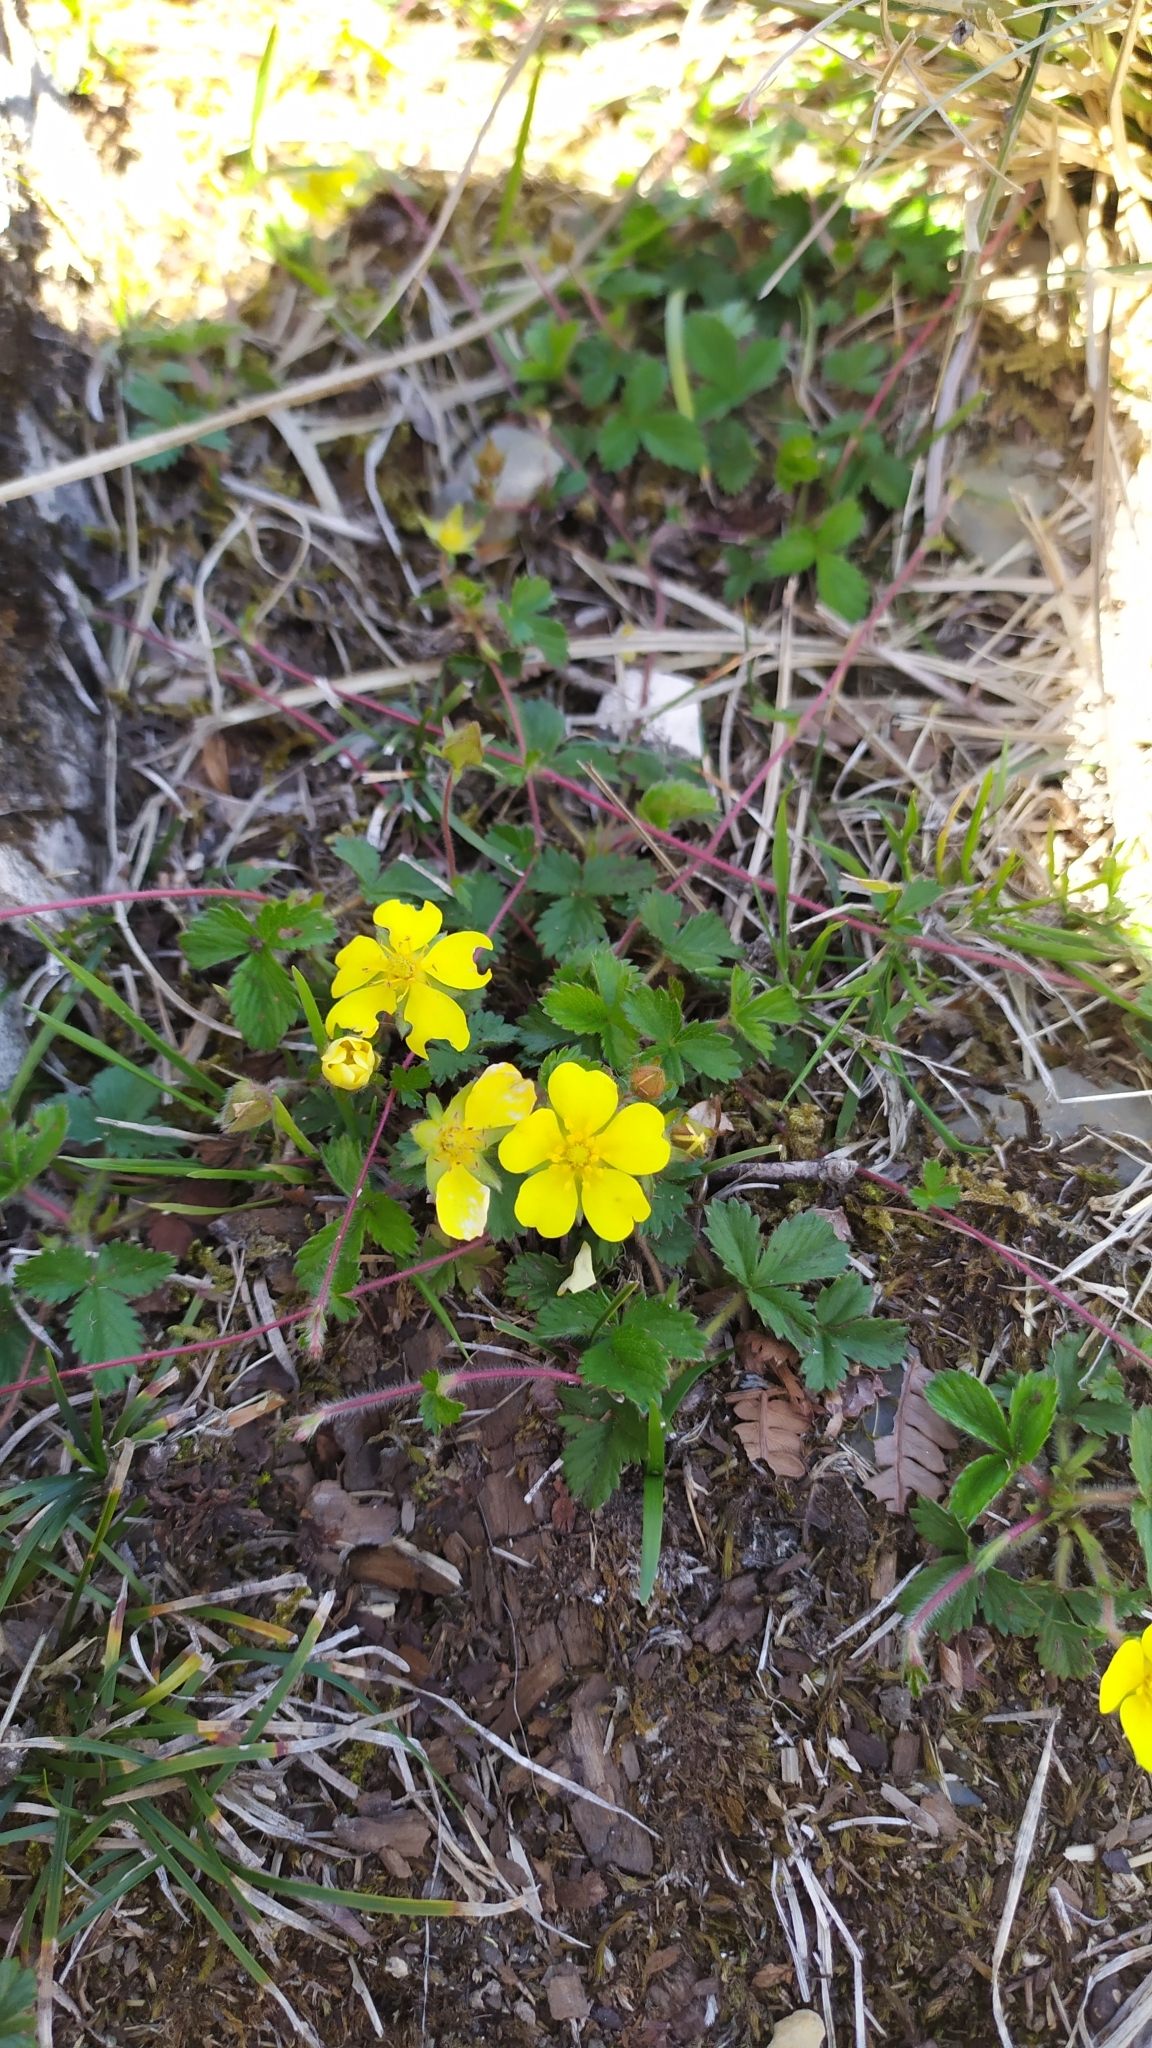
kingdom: Plantae
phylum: Tracheophyta
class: Magnoliopsida
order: Rosales
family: Rosaceae
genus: Potentilla
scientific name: Potentilla matsumurae
